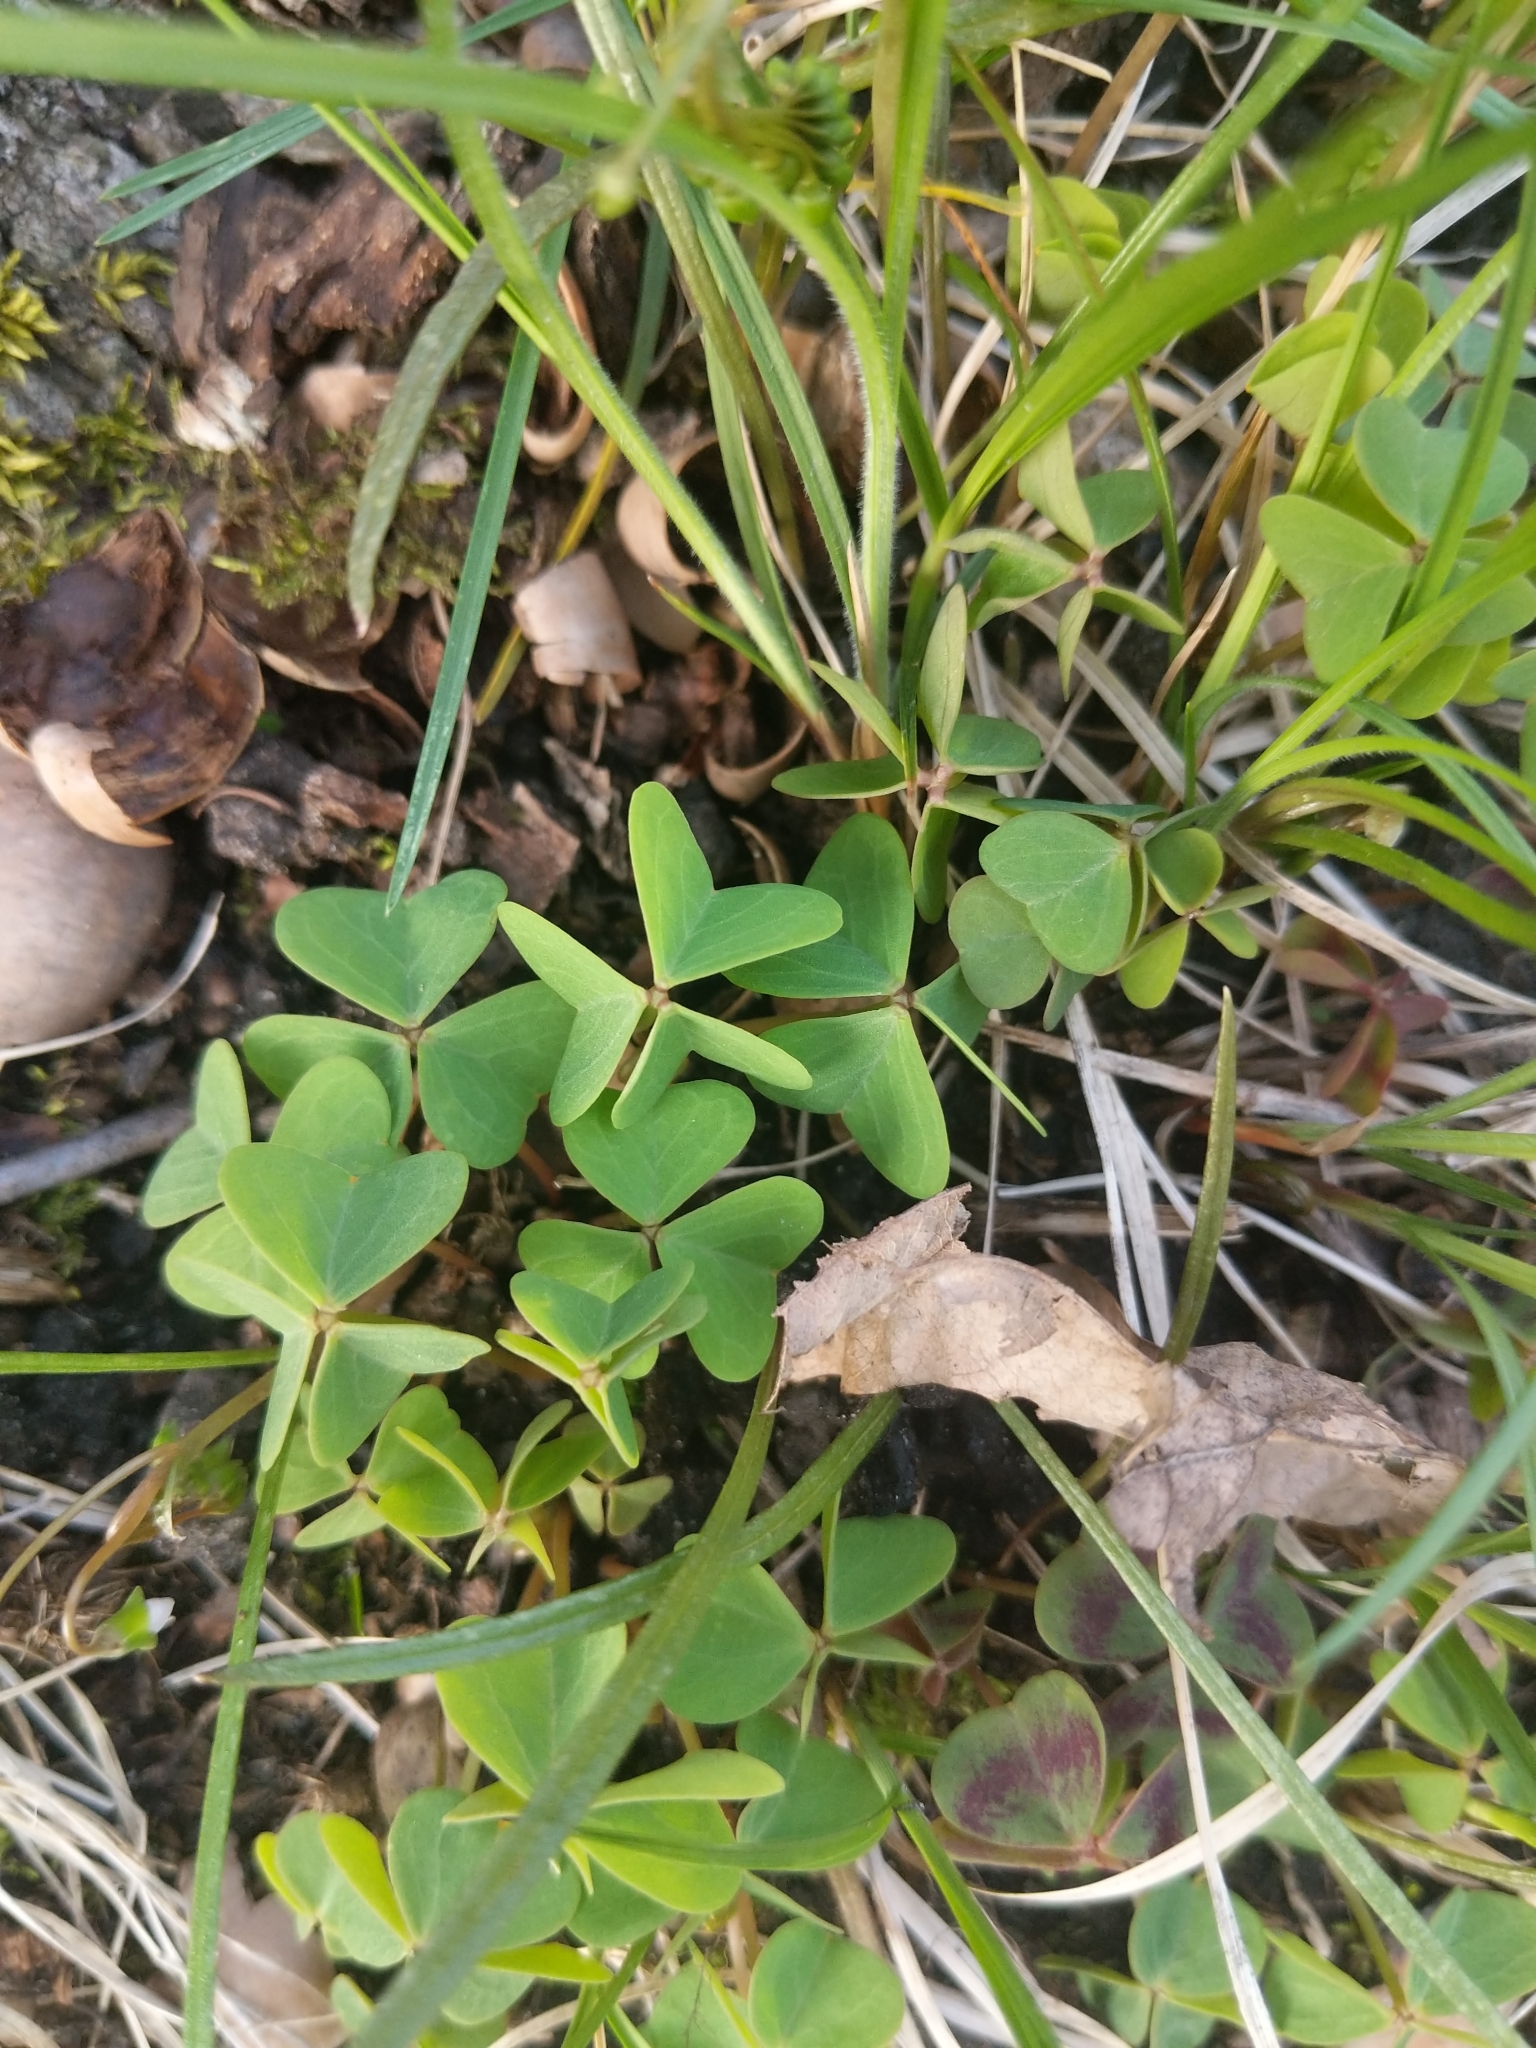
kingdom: Plantae
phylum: Tracheophyta
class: Magnoliopsida
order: Oxalidales
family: Oxalidaceae
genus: Oxalis
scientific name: Oxalis violacea
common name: Violet wood-sorrel
